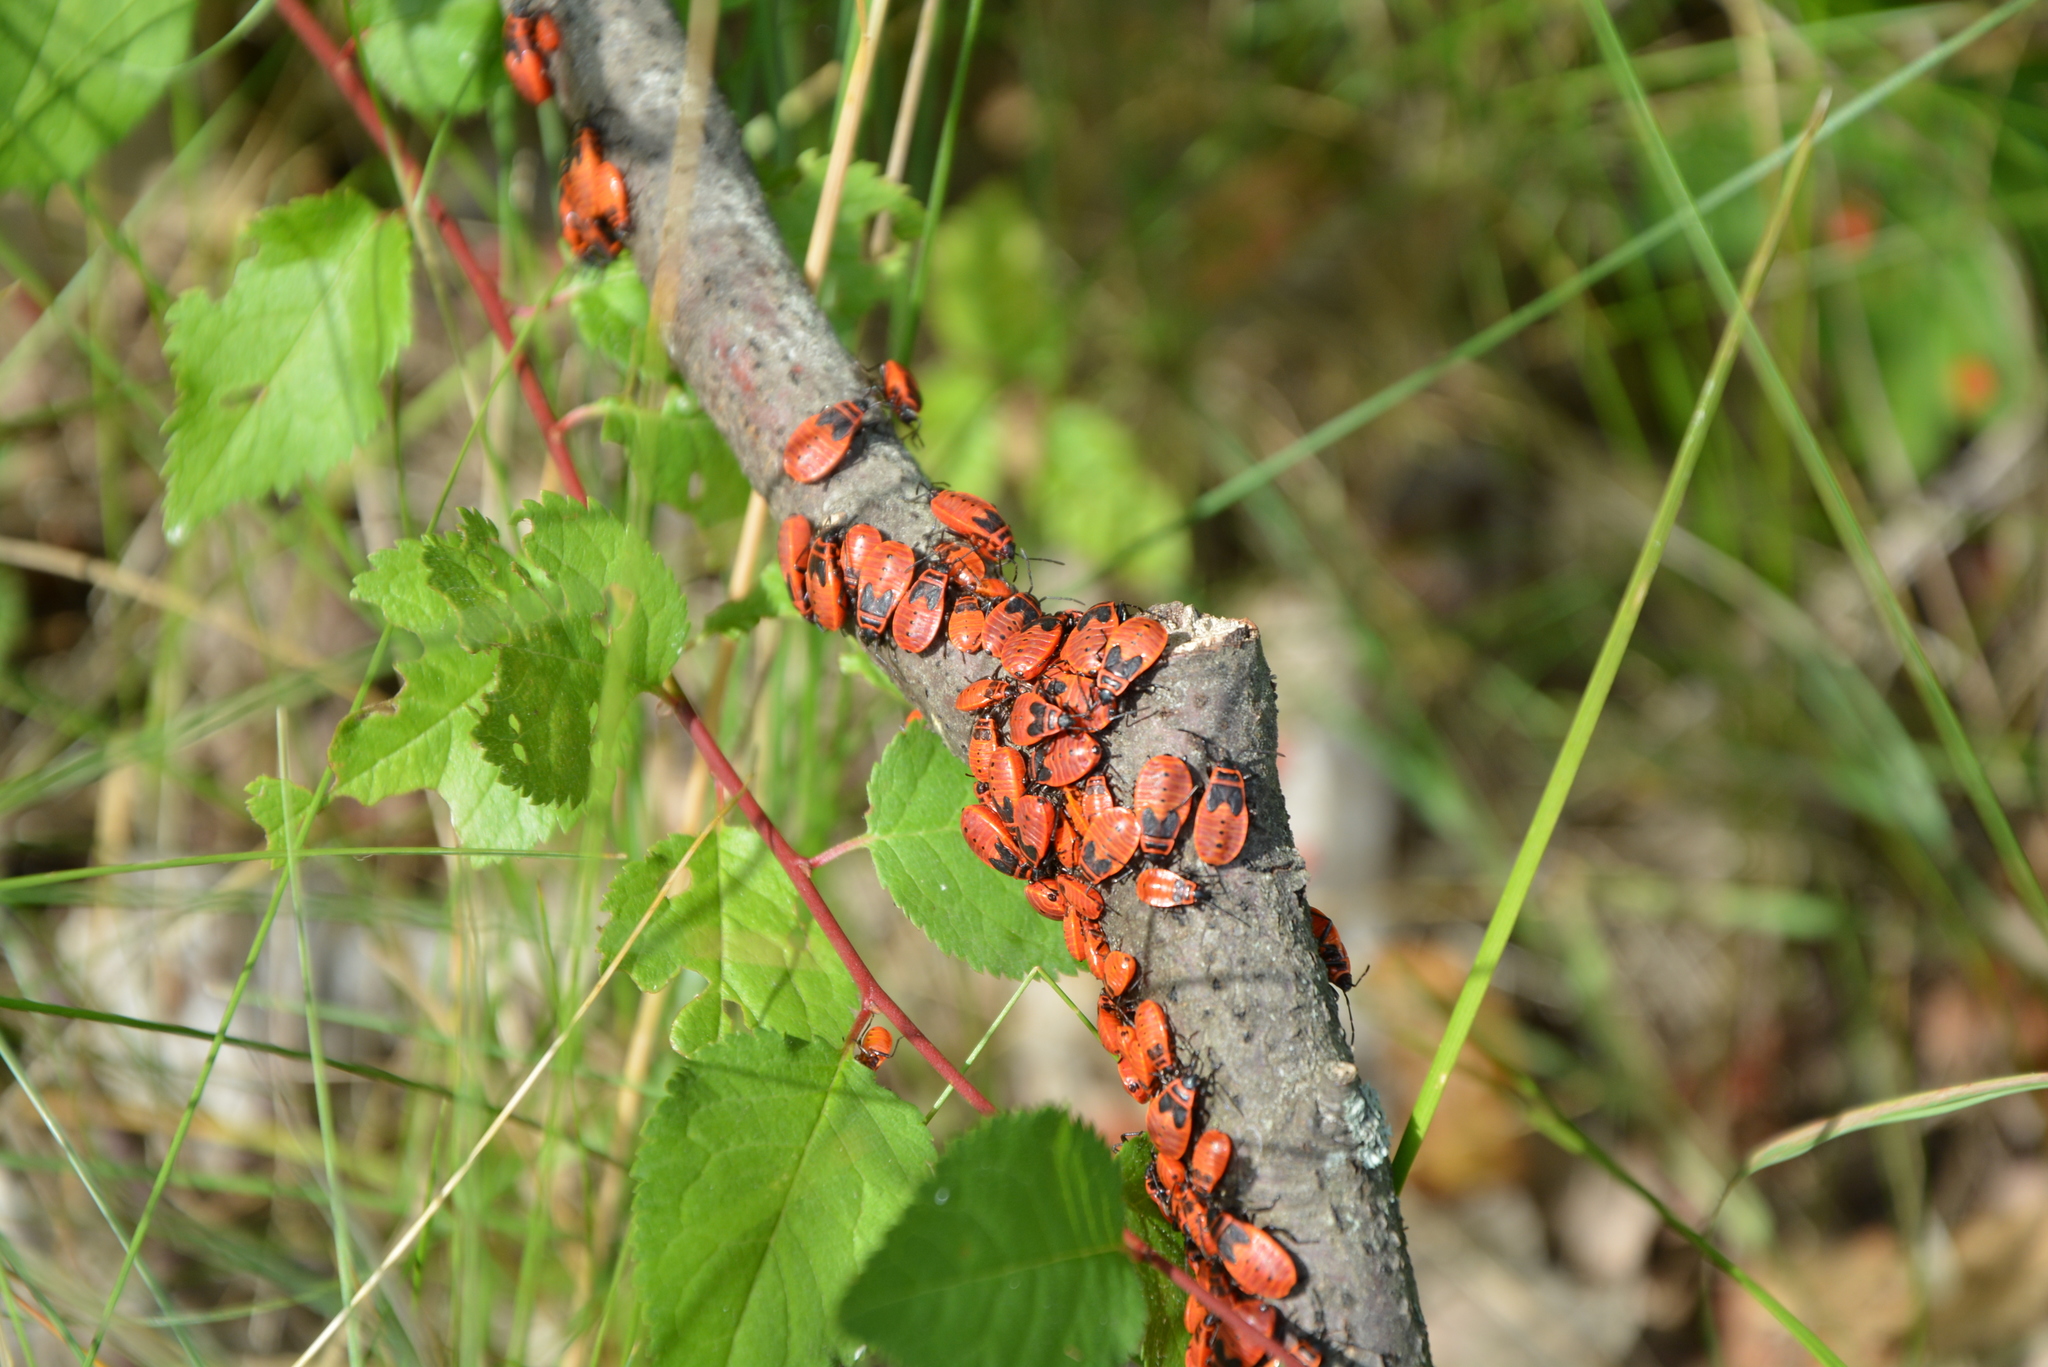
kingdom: Animalia
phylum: Arthropoda
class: Insecta
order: Hemiptera
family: Pyrrhocoridae
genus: Pyrrhocoris
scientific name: Pyrrhocoris apterus
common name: Firebug
